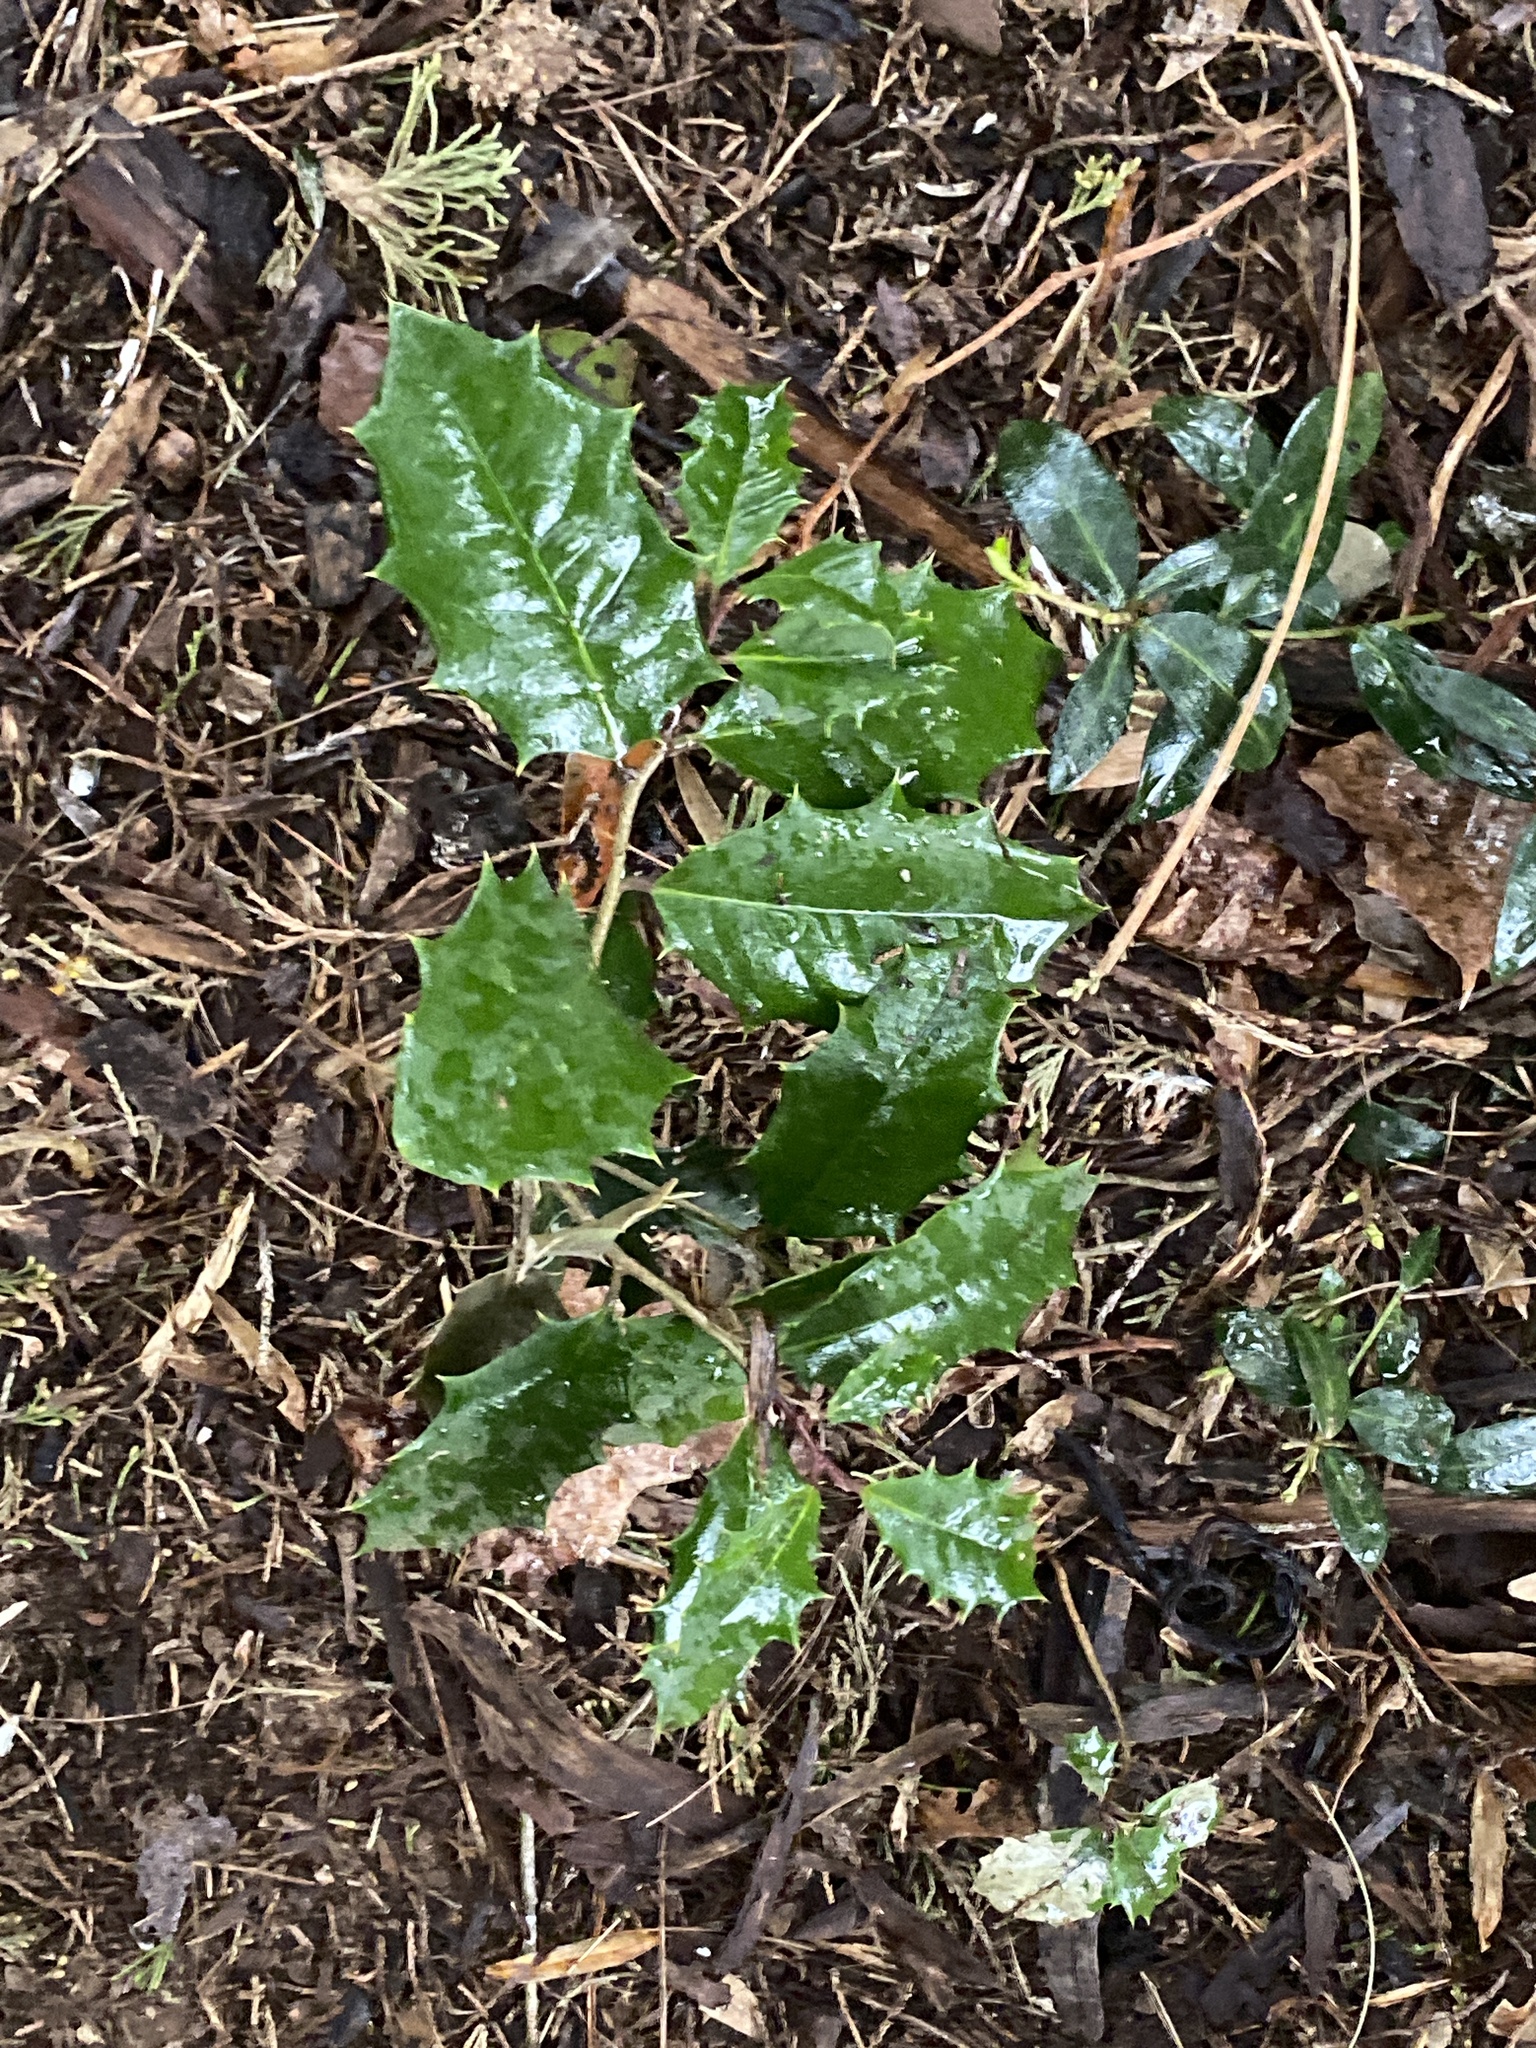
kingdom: Plantae
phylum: Tracheophyta
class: Magnoliopsida
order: Aquifoliales
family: Aquifoliaceae
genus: Ilex
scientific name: Ilex opaca
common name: American holly
